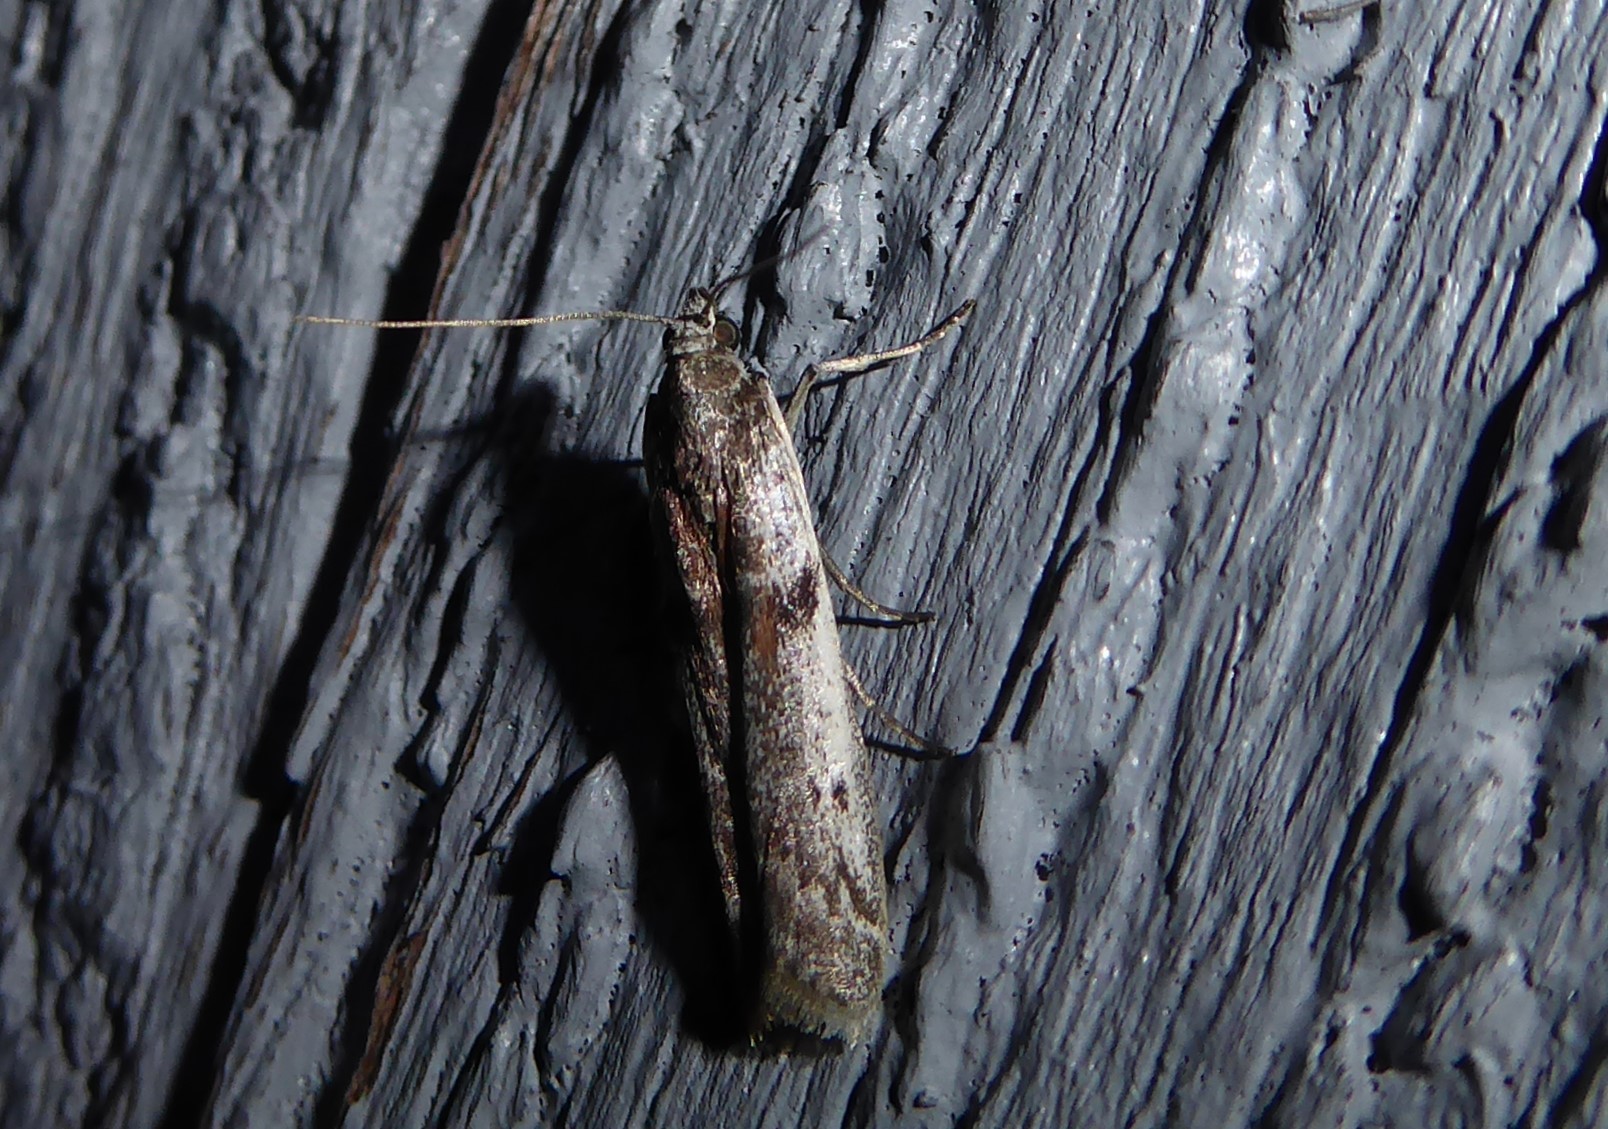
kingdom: Animalia
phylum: Arthropoda
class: Insecta
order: Lepidoptera
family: Pyralidae
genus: Patagoniodes
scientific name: Patagoniodes farinaria
